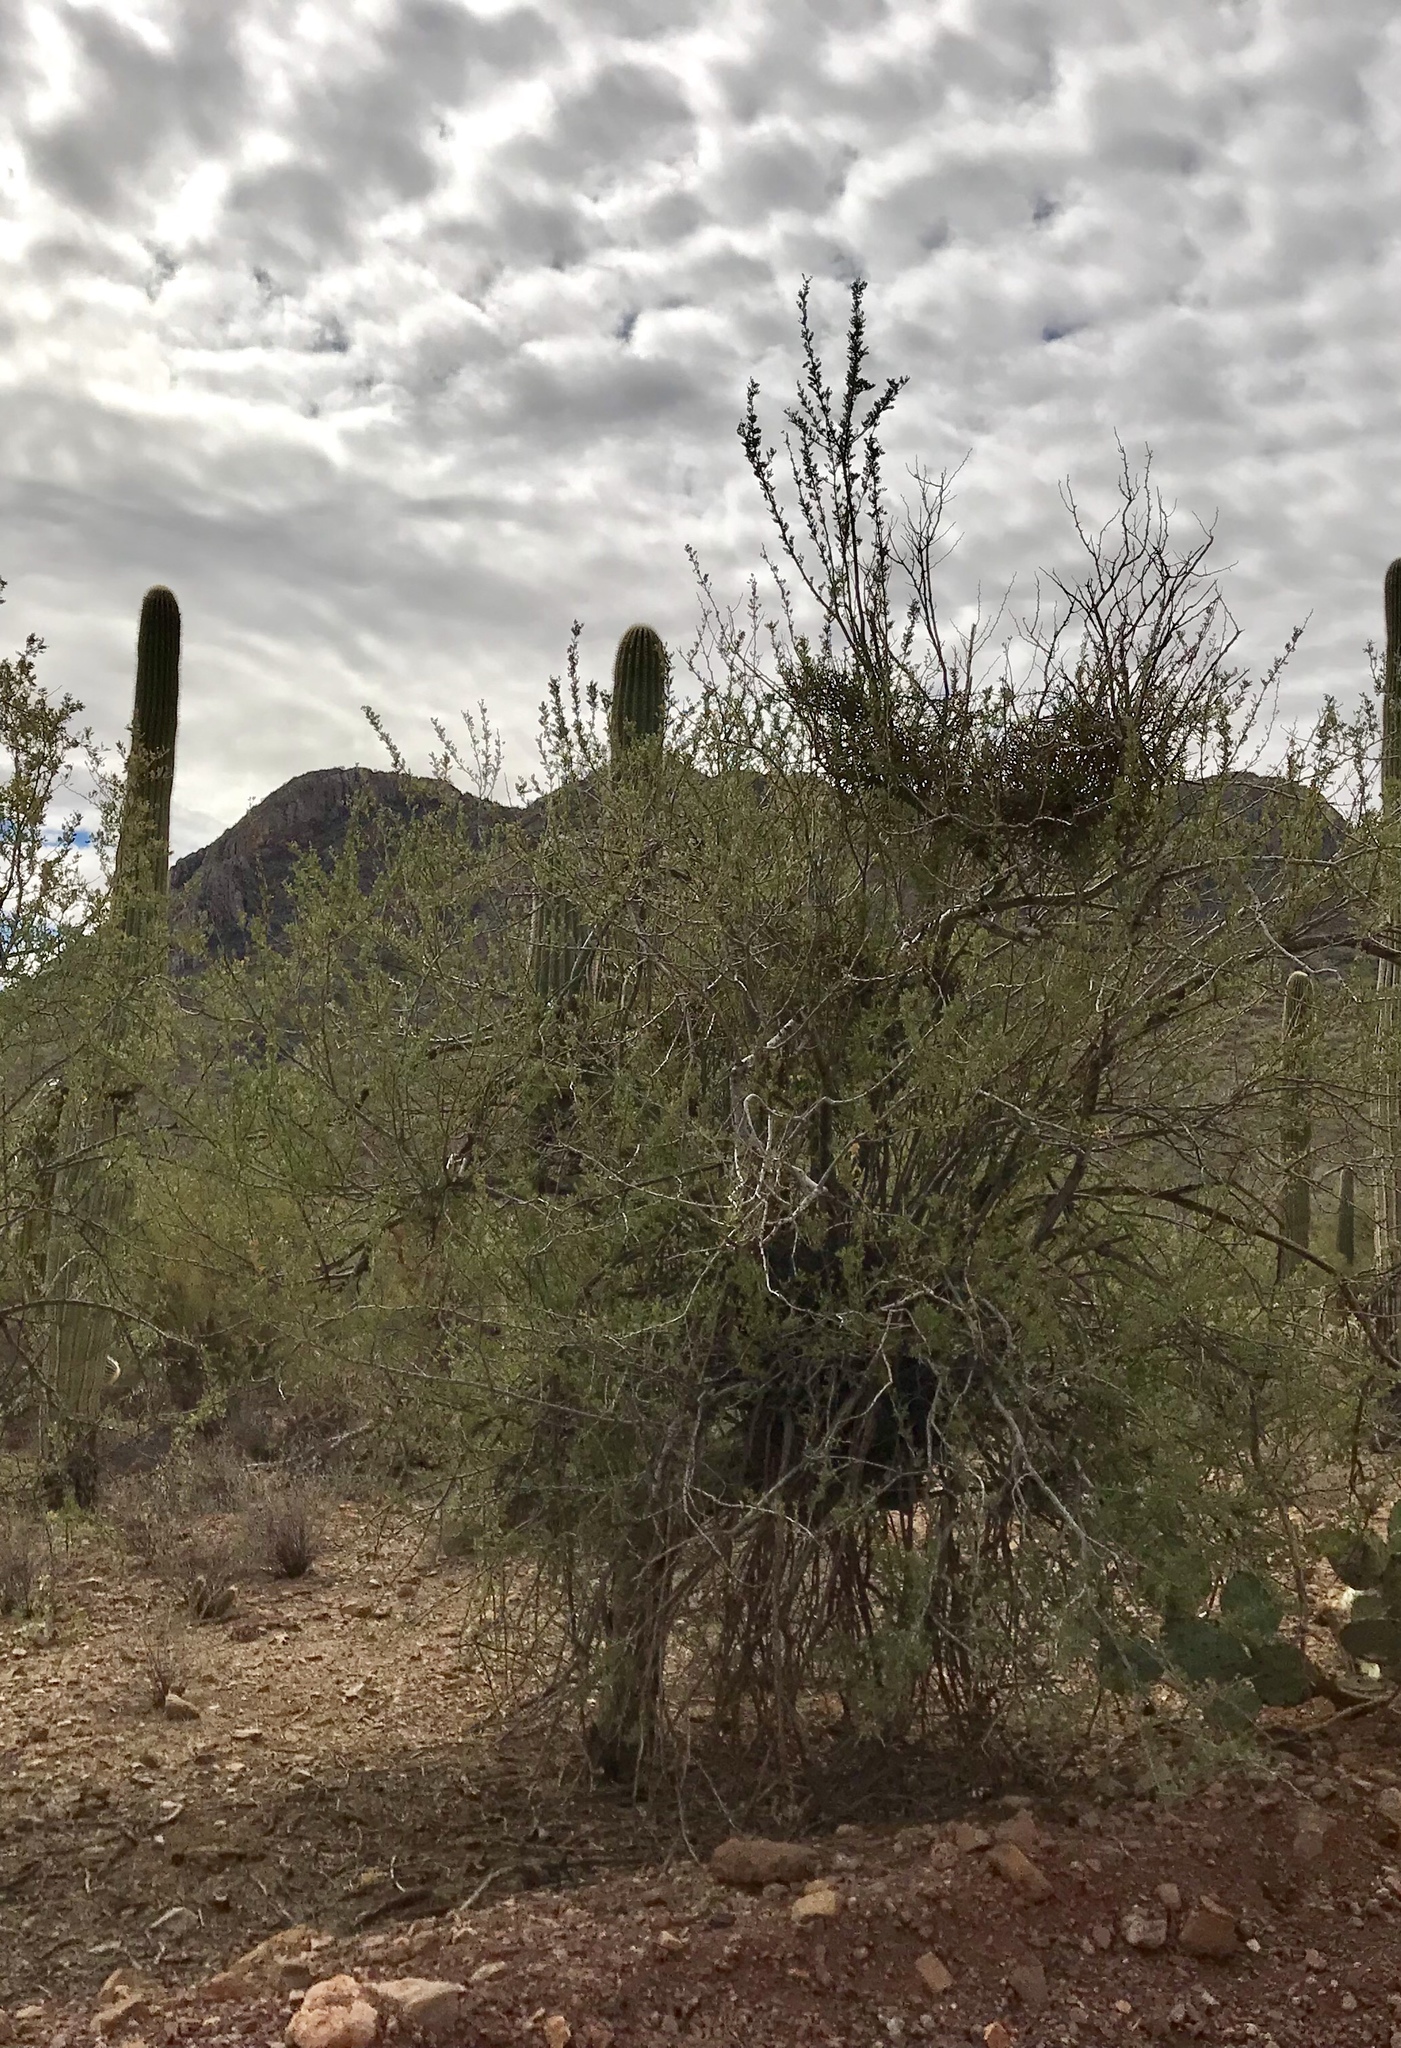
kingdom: Plantae
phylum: Tracheophyta
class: Magnoliopsida
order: Fabales
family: Fabaceae
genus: Olneya
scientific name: Olneya tesota
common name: Desert ironwood
